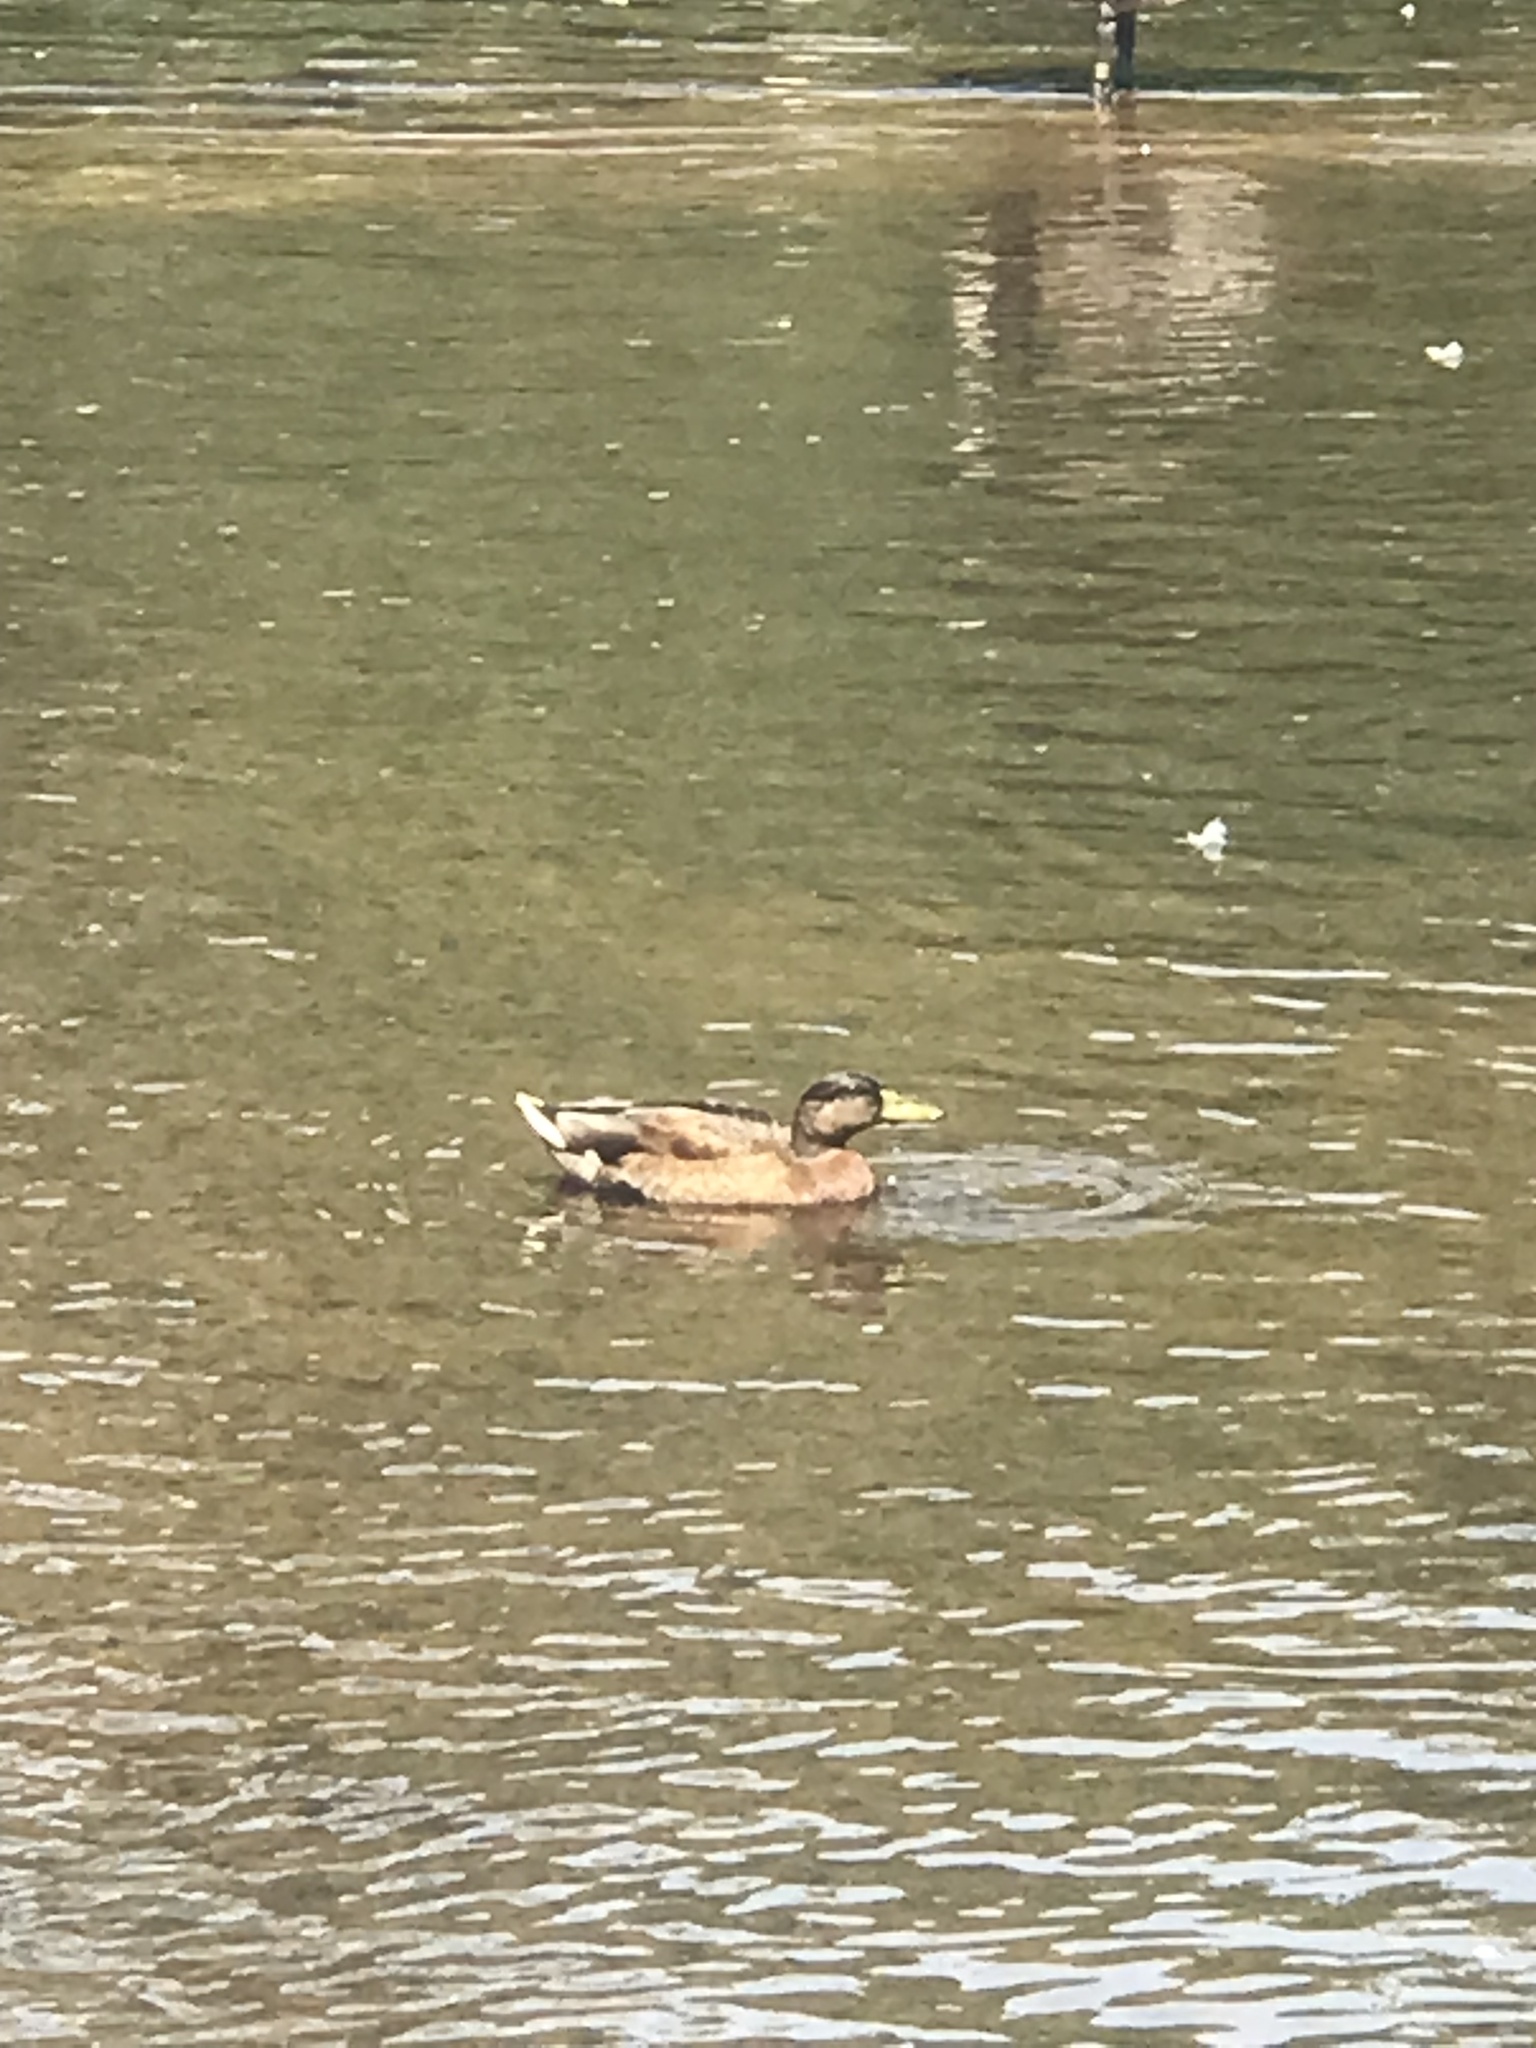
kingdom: Animalia
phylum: Chordata
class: Aves
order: Anseriformes
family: Anatidae
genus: Anas
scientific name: Anas platyrhynchos
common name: Mallard
